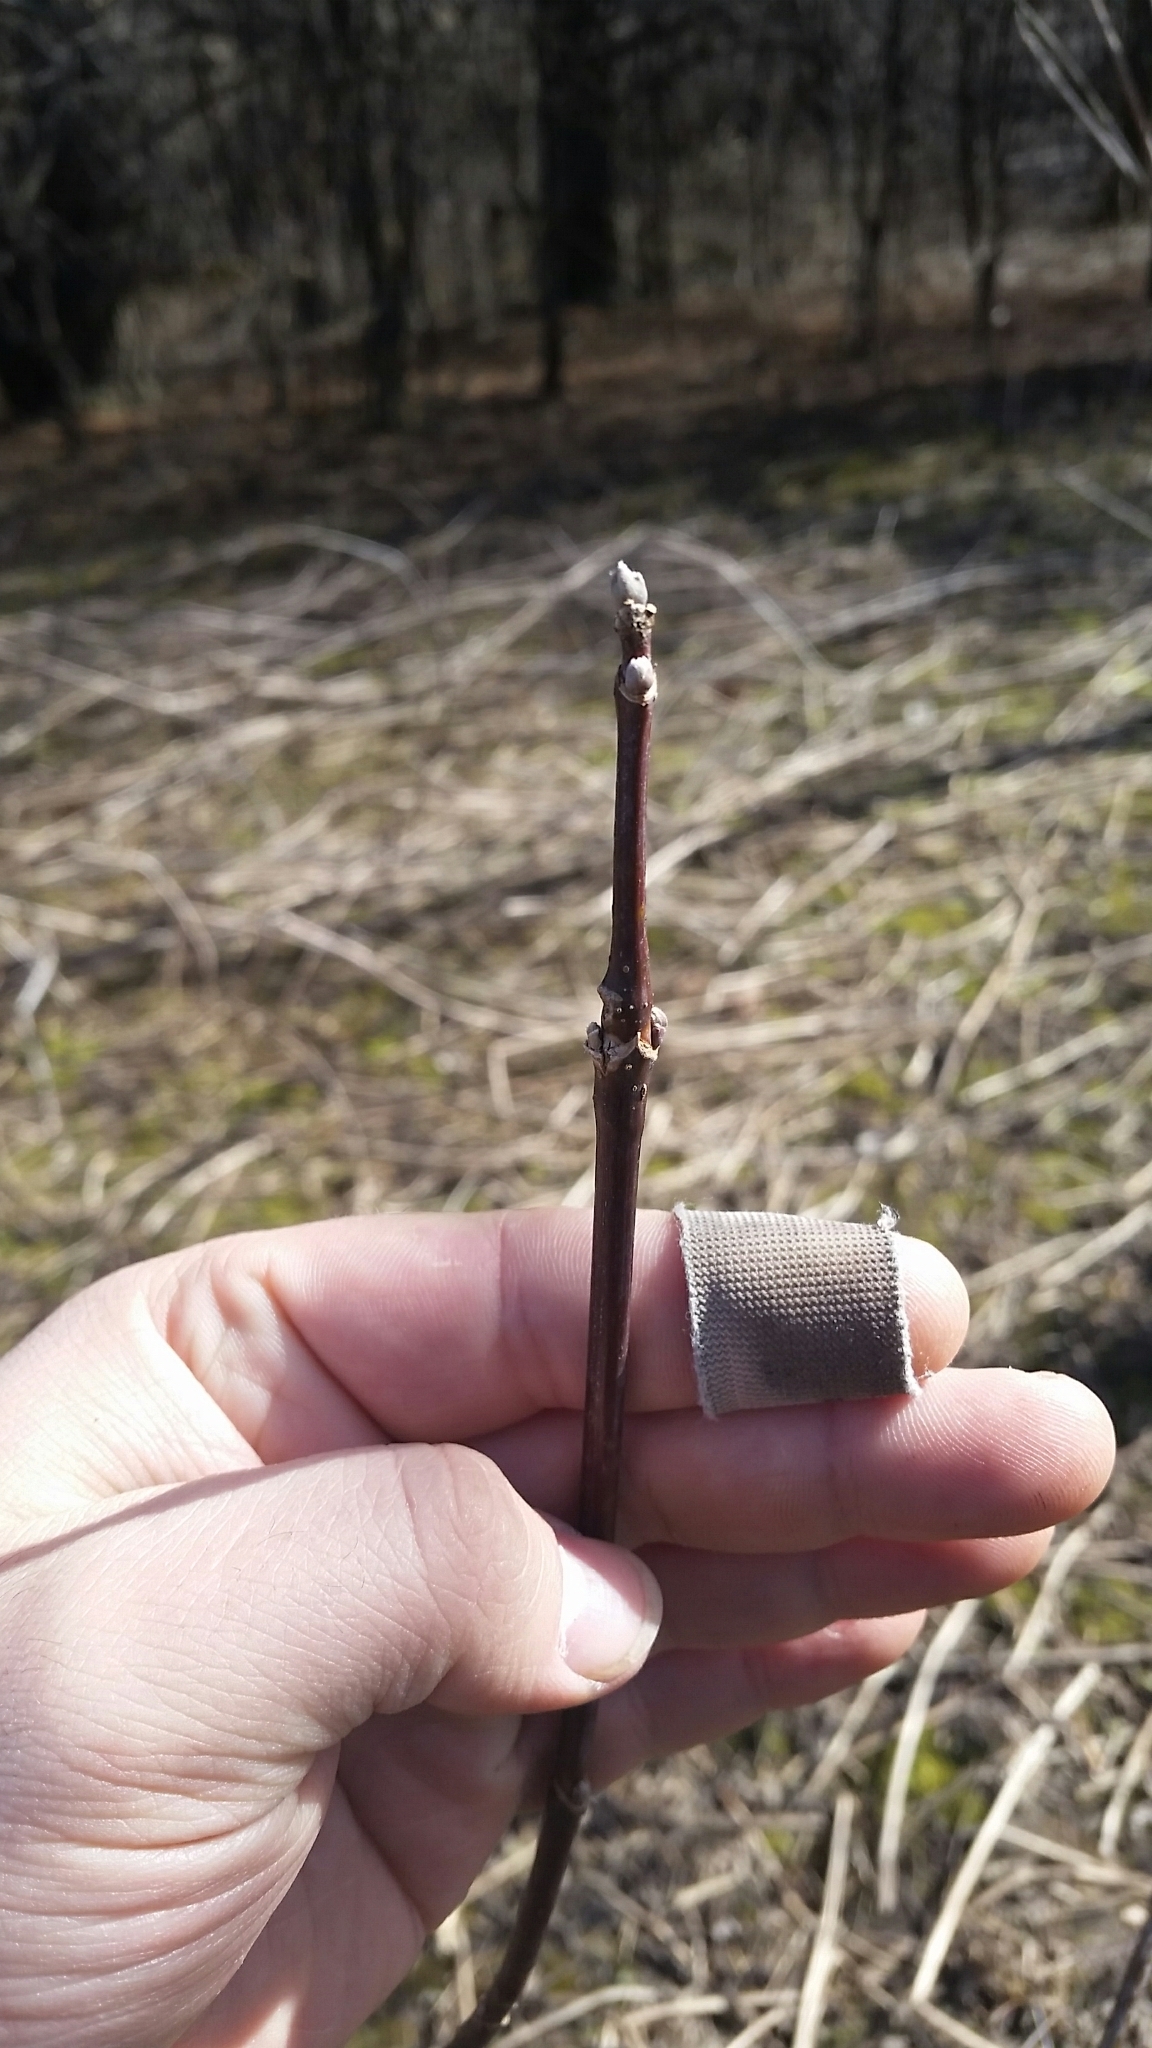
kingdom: Plantae
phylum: Tracheophyta
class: Magnoliopsida
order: Sapindales
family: Sapindaceae
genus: Acer
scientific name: Acer negundo
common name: Ashleaf maple
